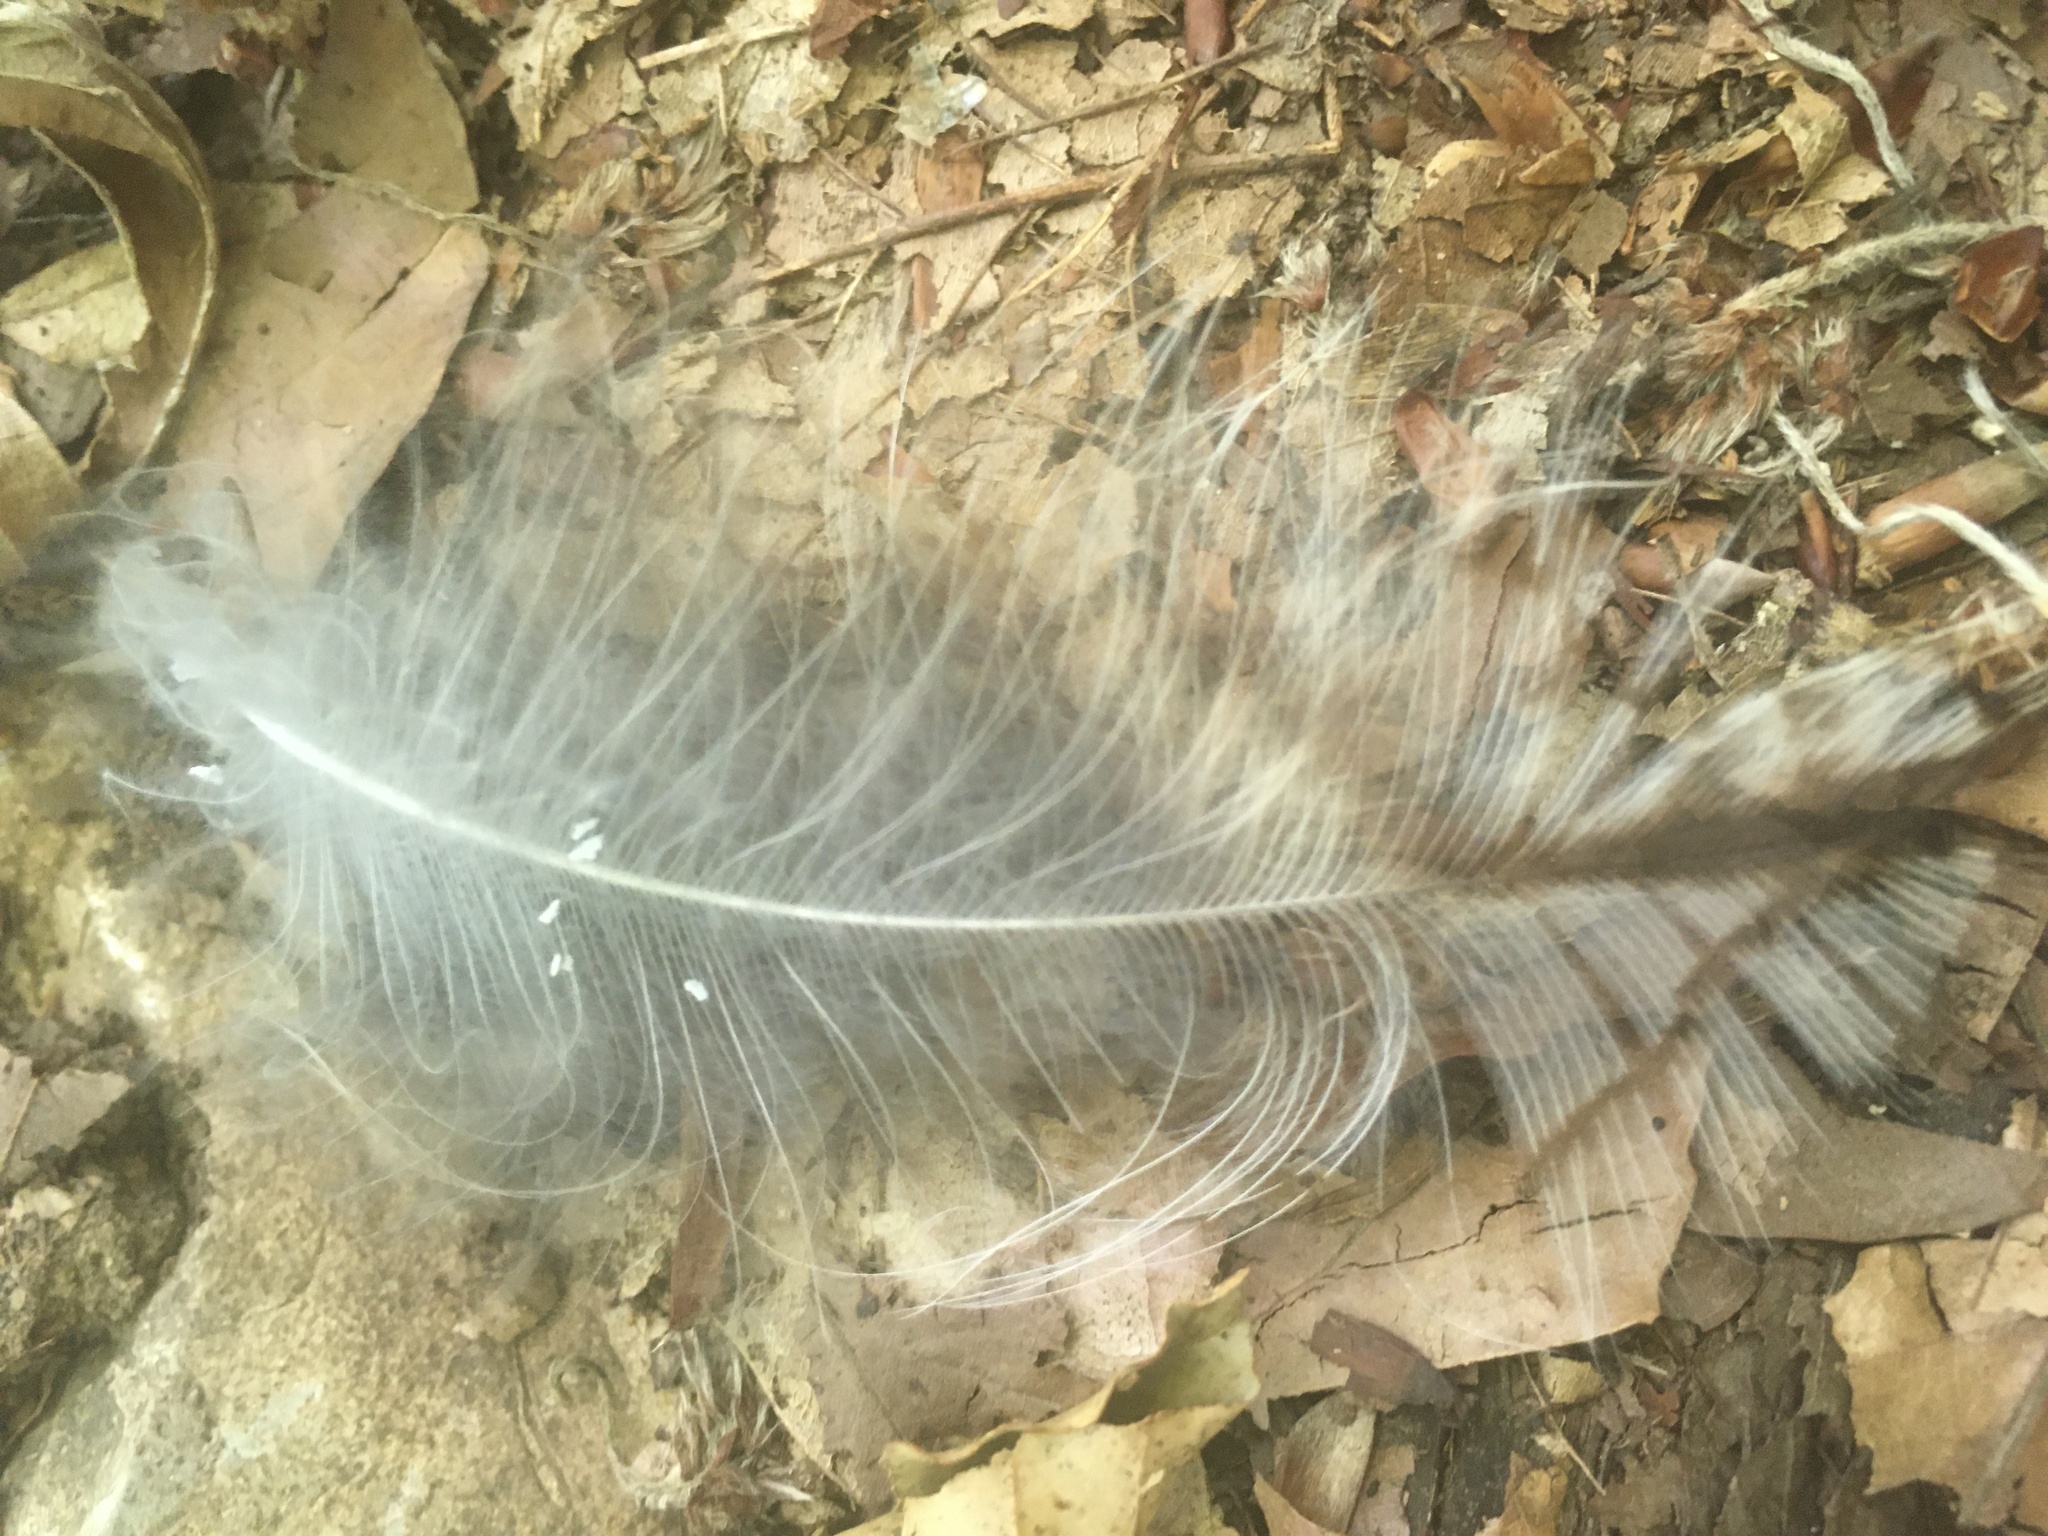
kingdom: Animalia
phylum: Chordata
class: Aves
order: Strigiformes
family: Strigidae
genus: Strix
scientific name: Strix aluco
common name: Tawny owl
